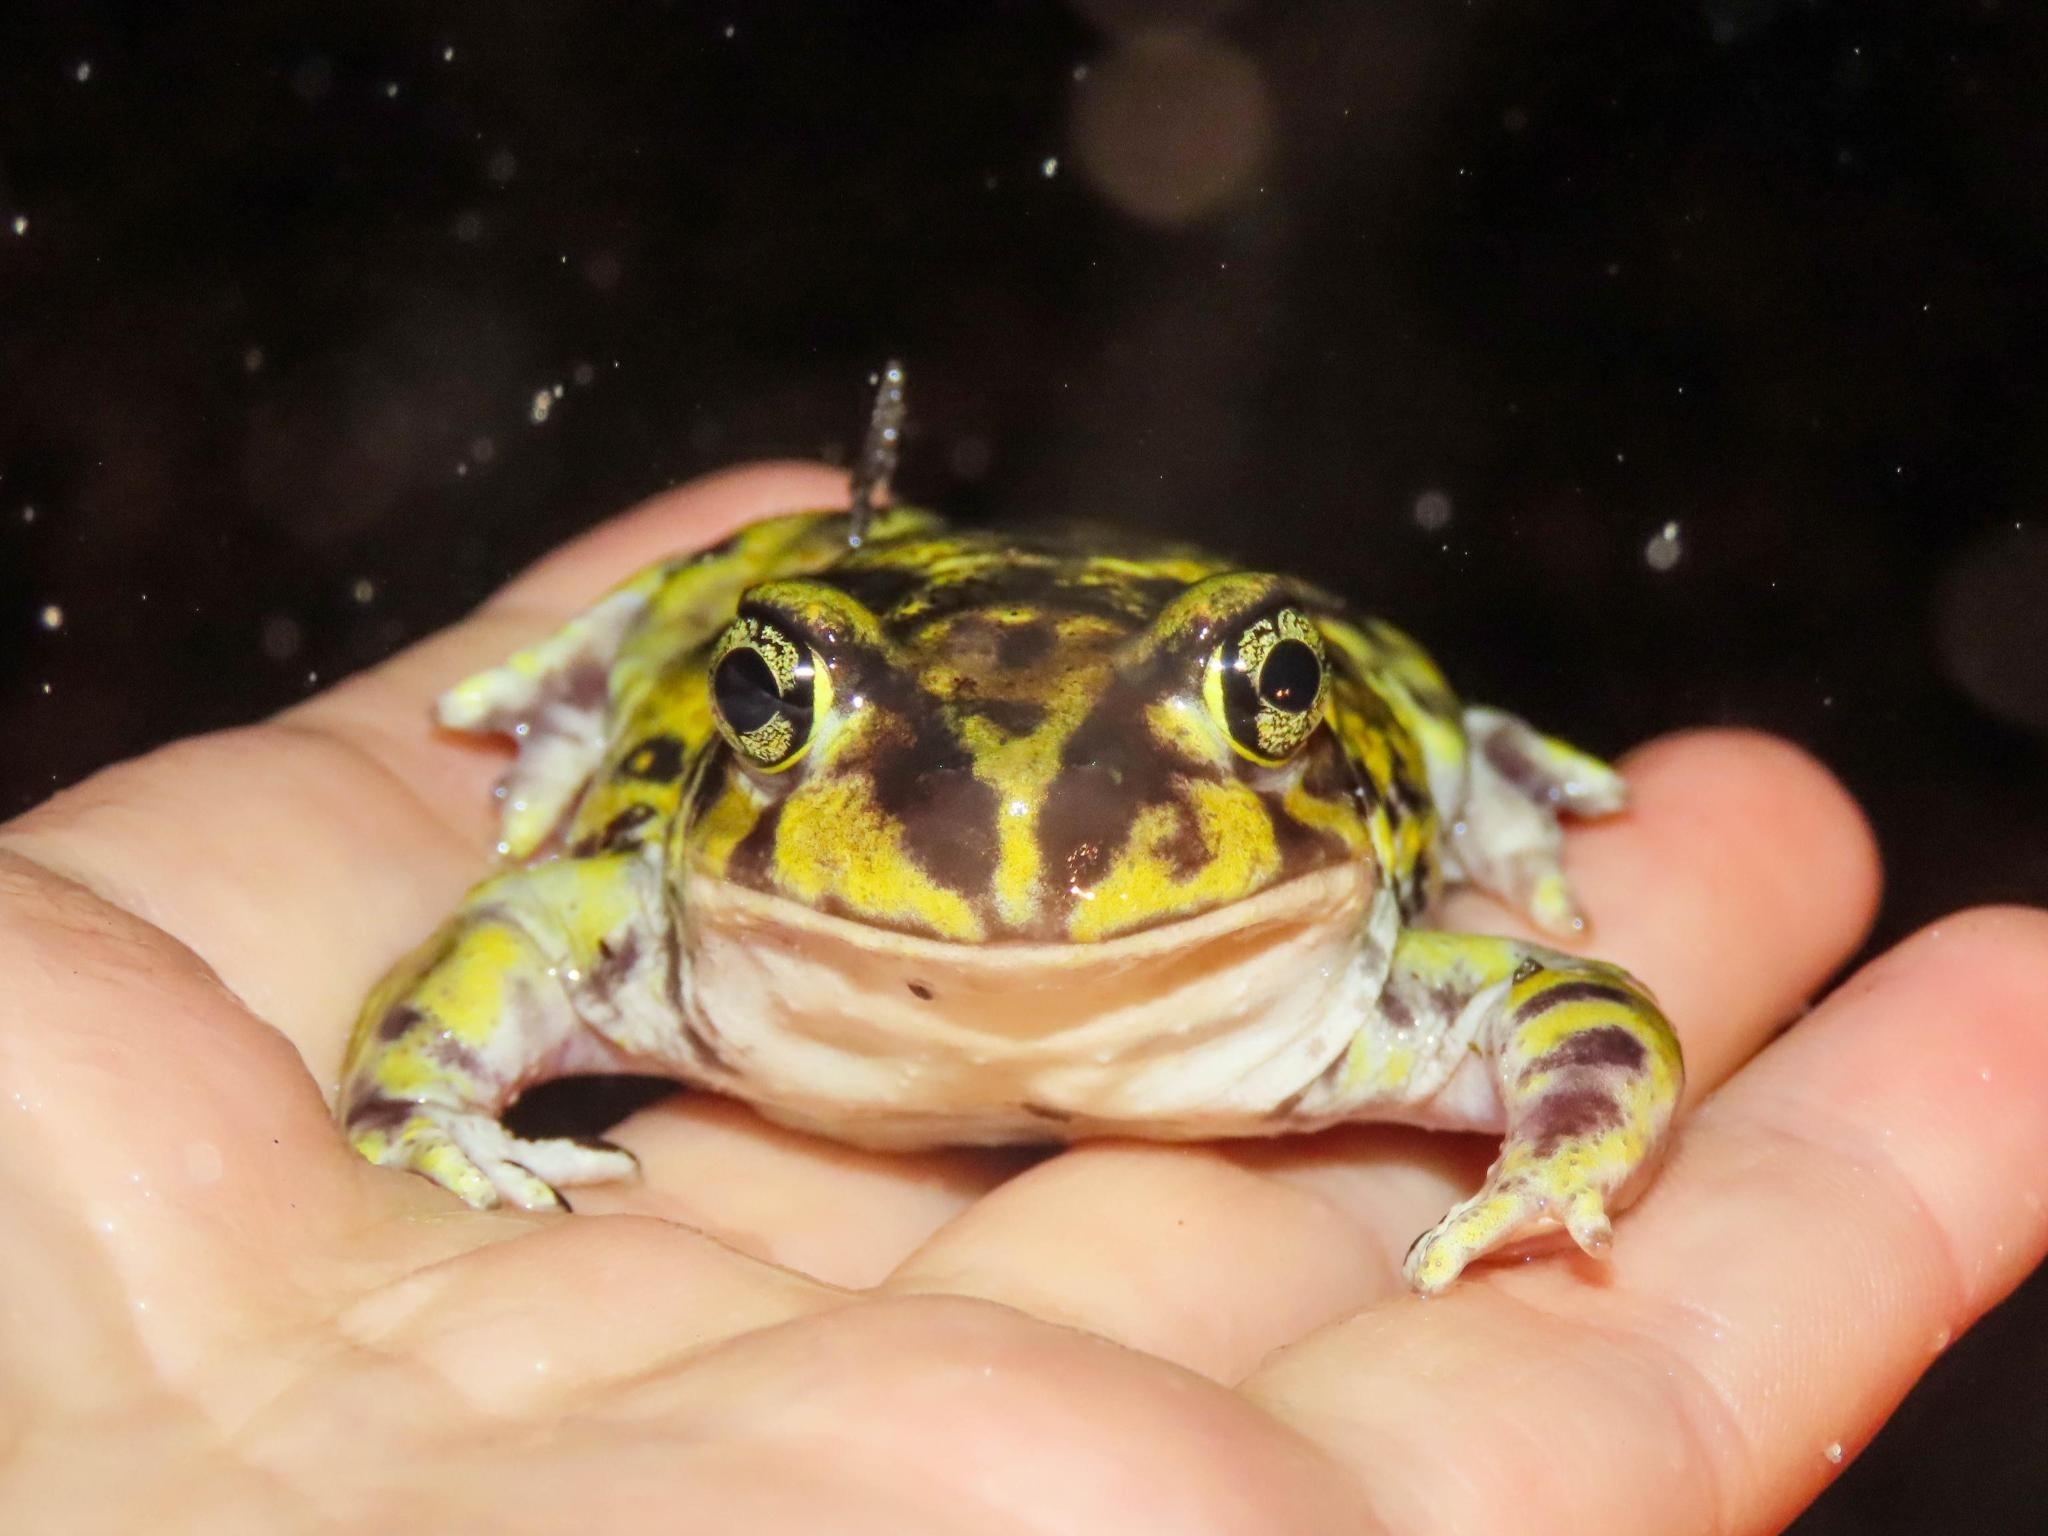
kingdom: Animalia
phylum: Chordata
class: Amphibia
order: Anura
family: Scaphiopodidae
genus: Scaphiopus
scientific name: Scaphiopus holbrookii
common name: Eastern spadefoot toad
